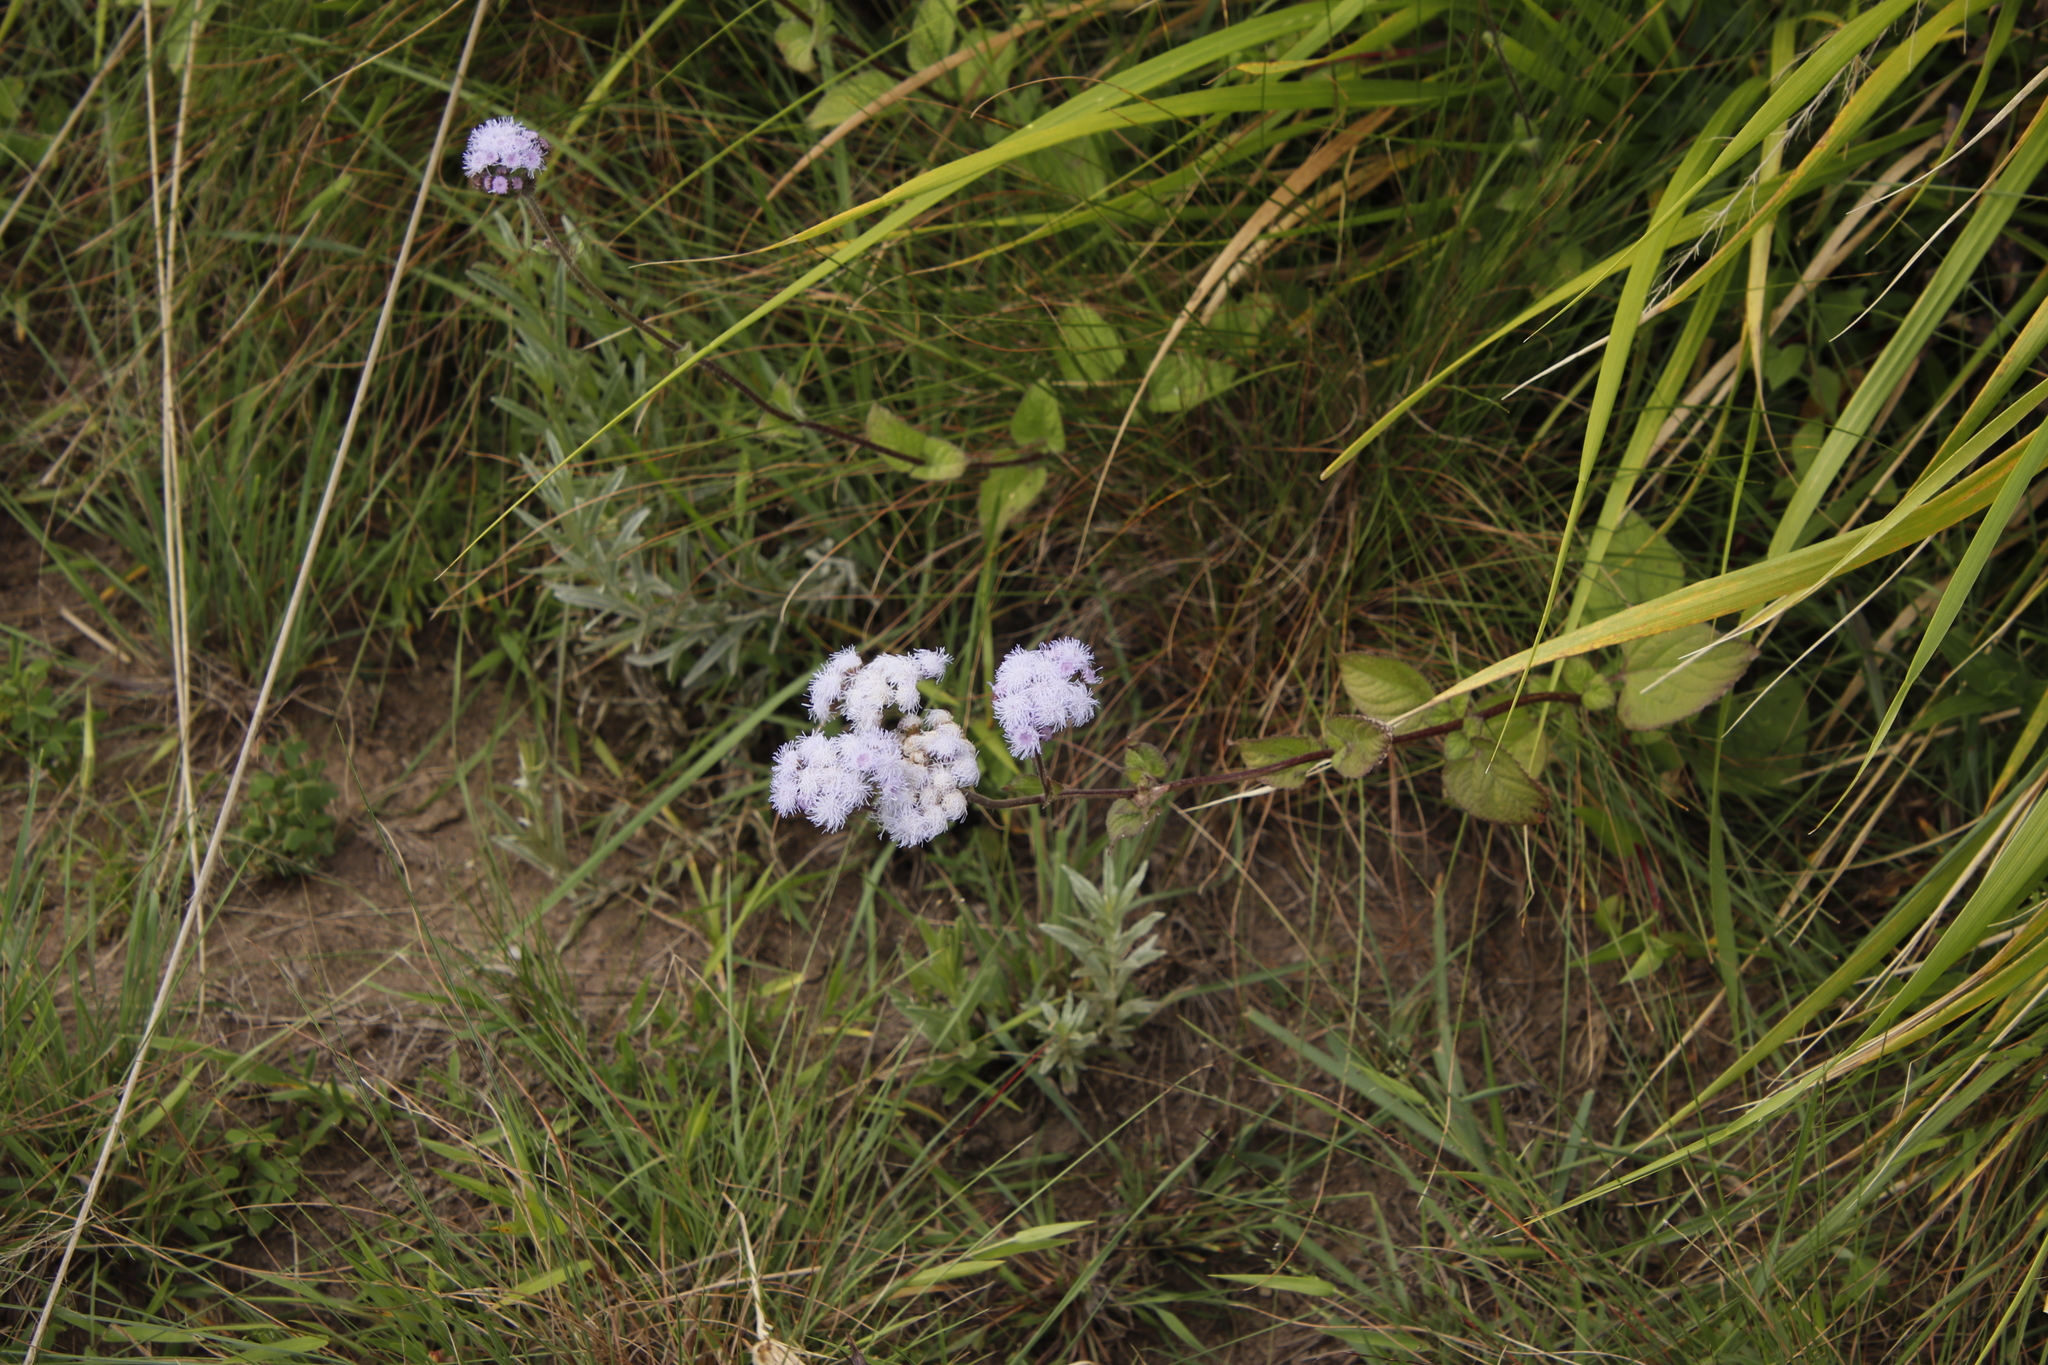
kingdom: Plantae
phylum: Tracheophyta
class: Magnoliopsida
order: Asterales
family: Asteraceae
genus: Ageratum
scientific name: Ageratum houstonianum
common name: Bluemink
